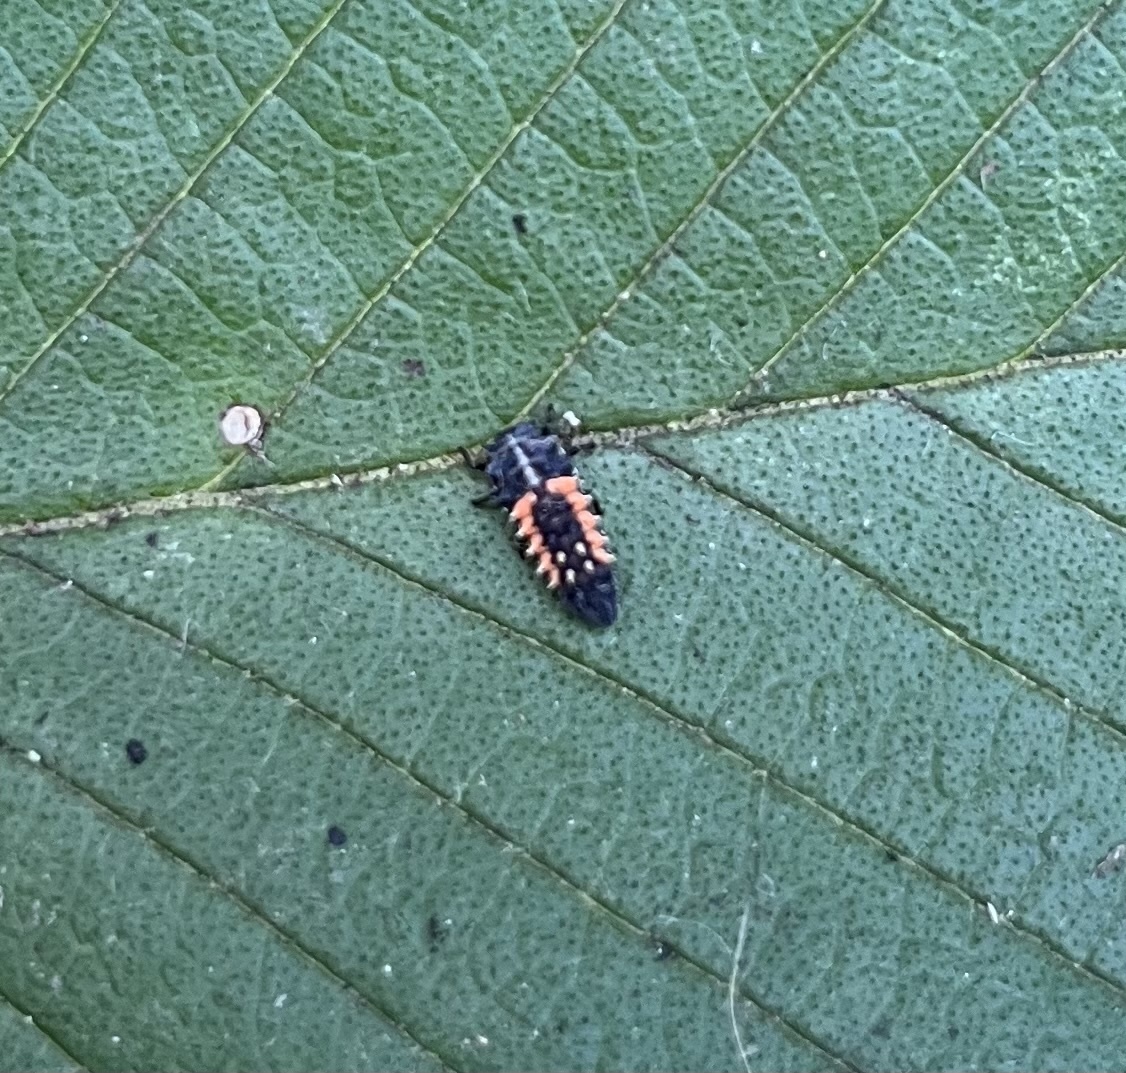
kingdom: Animalia
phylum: Arthropoda
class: Insecta
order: Coleoptera
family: Coccinellidae
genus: Harmonia
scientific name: Harmonia axyridis
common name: Harlequin ladybird
